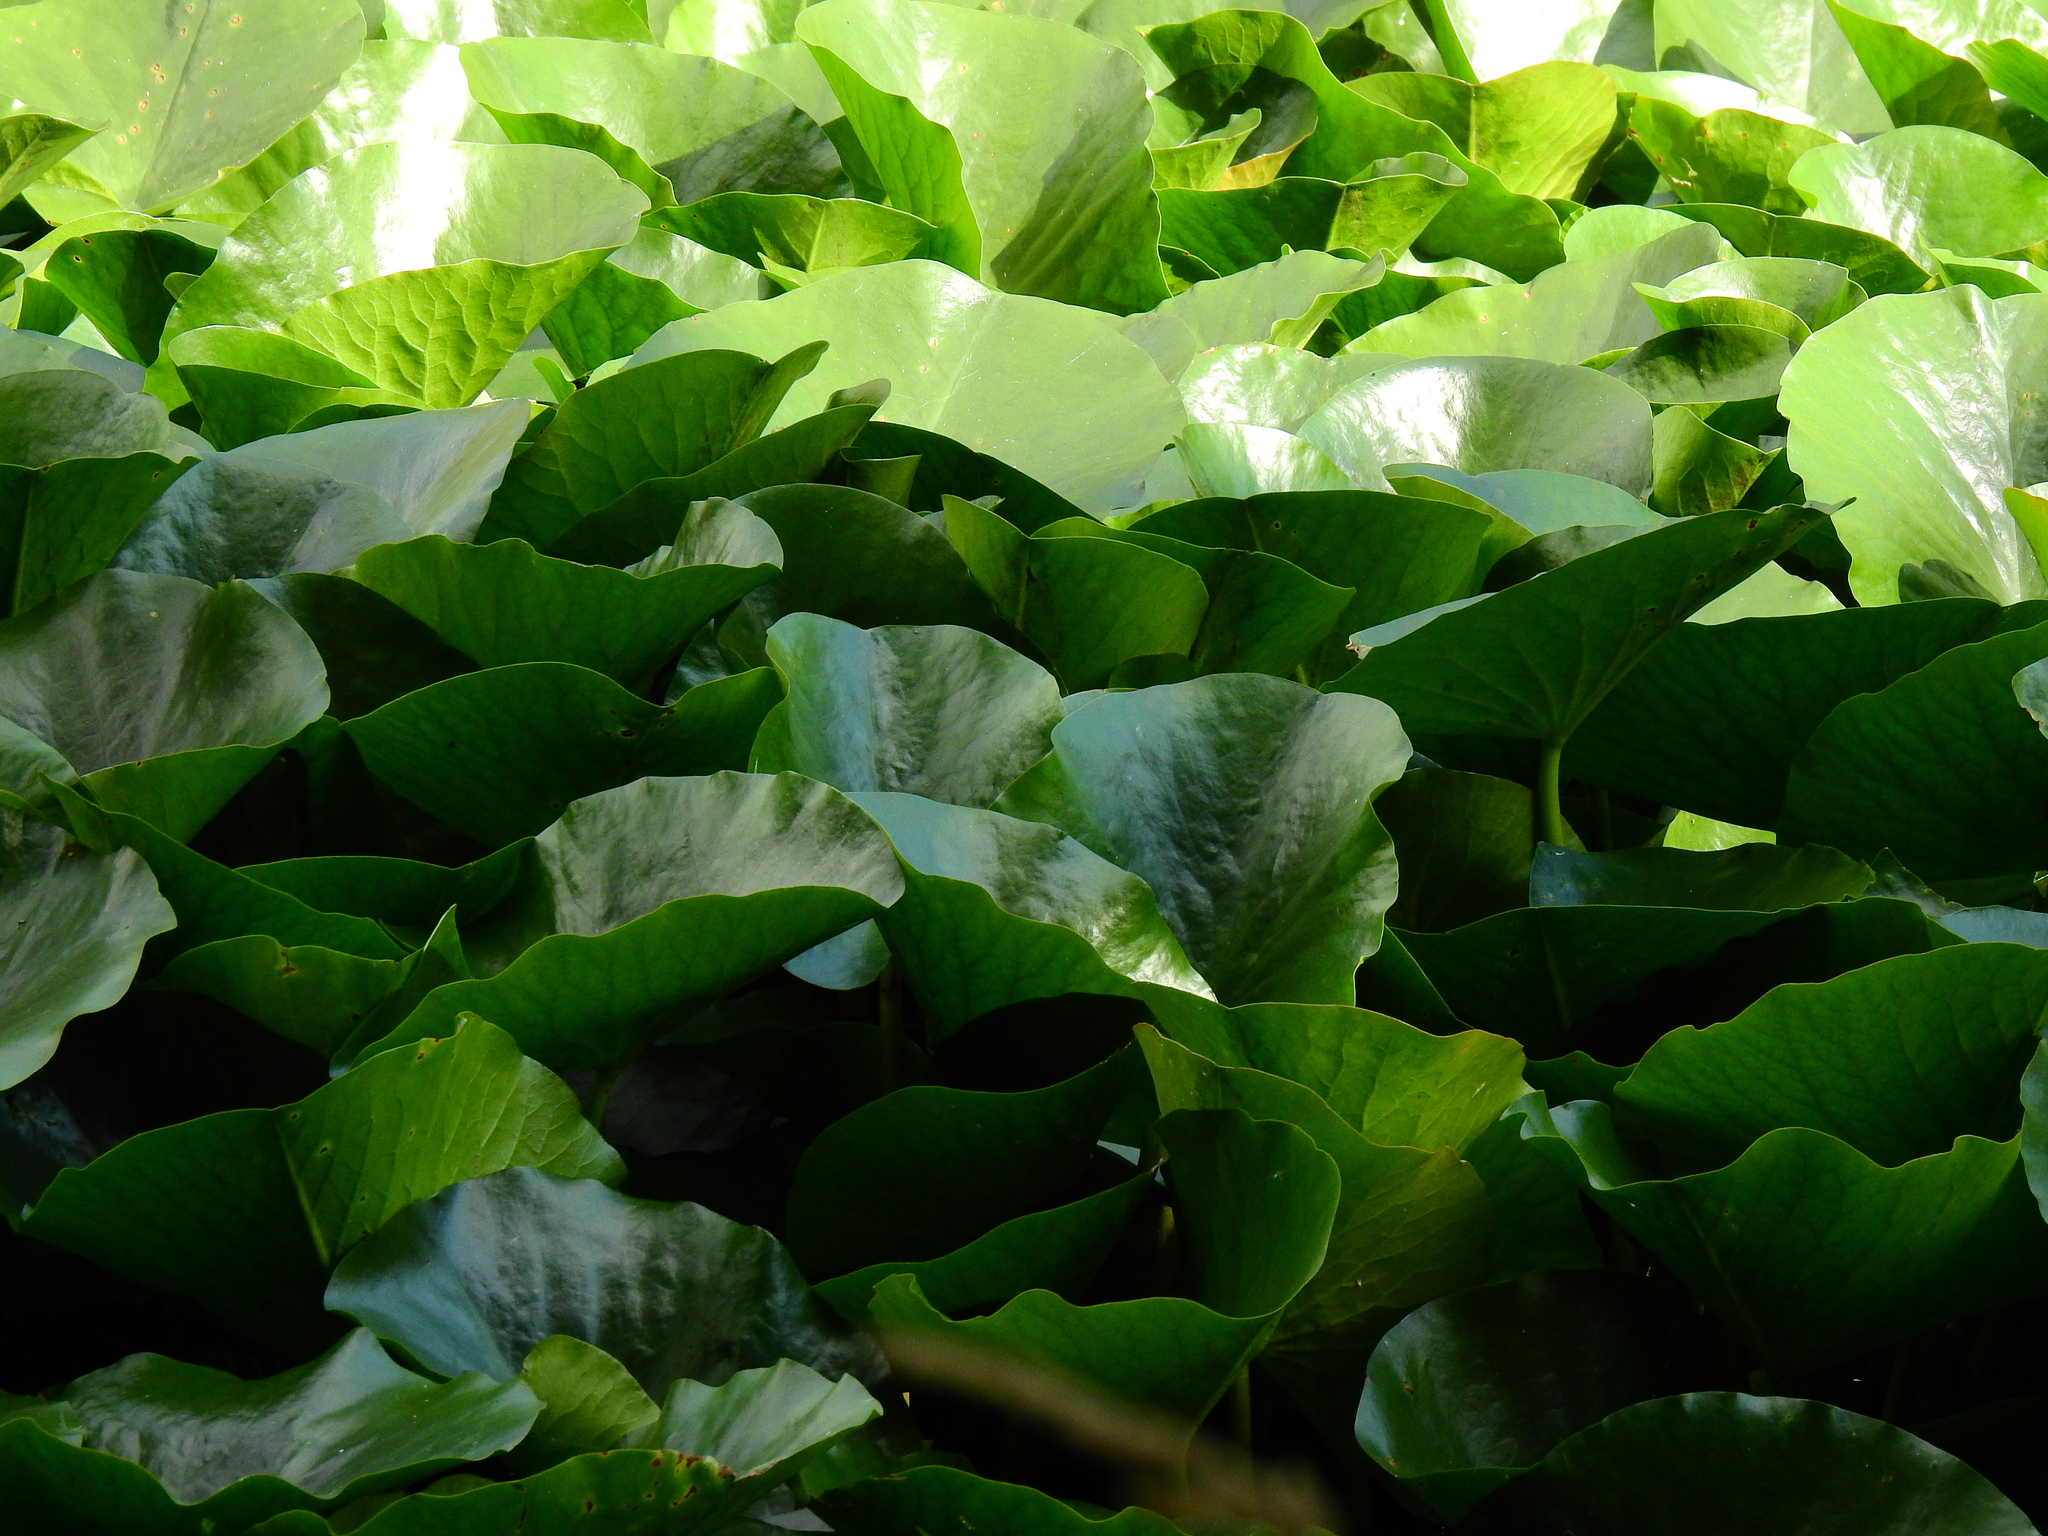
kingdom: Plantae
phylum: Tracheophyta
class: Magnoliopsida
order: Nymphaeales
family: Nymphaeaceae
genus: Nymphaea
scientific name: Nymphaea alba
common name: White water-lily
